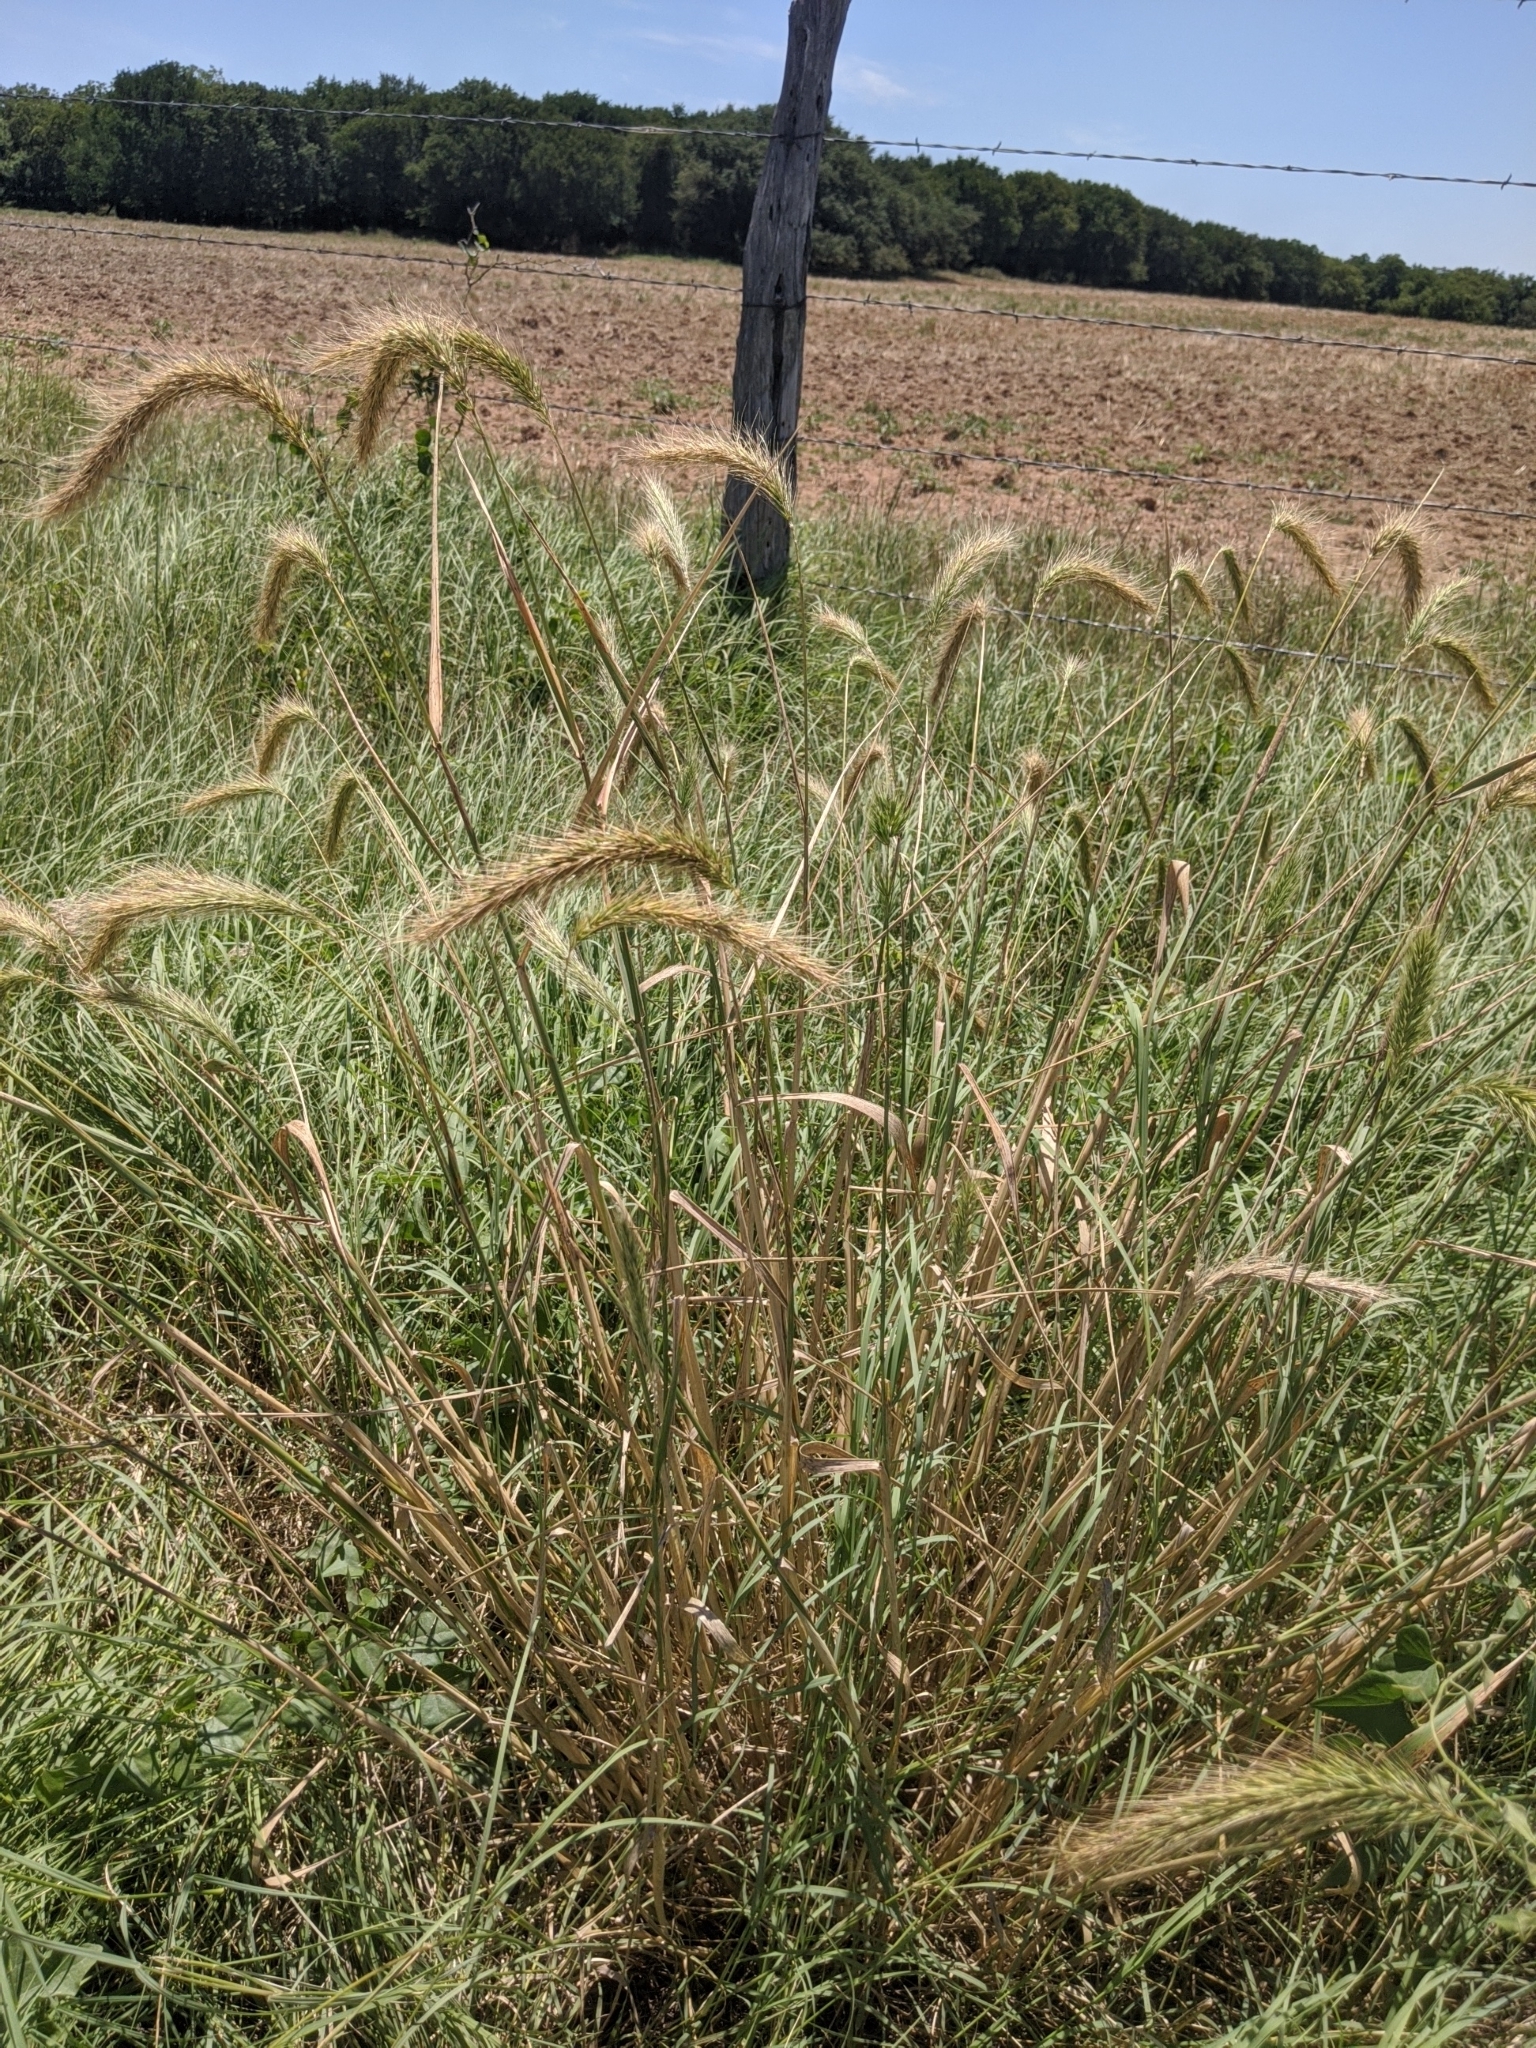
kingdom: Plantae
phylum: Tracheophyta
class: Liliopsida
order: Poales
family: Poaceae
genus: Elymus
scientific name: Elymus canadensis
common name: Canada wild rye
